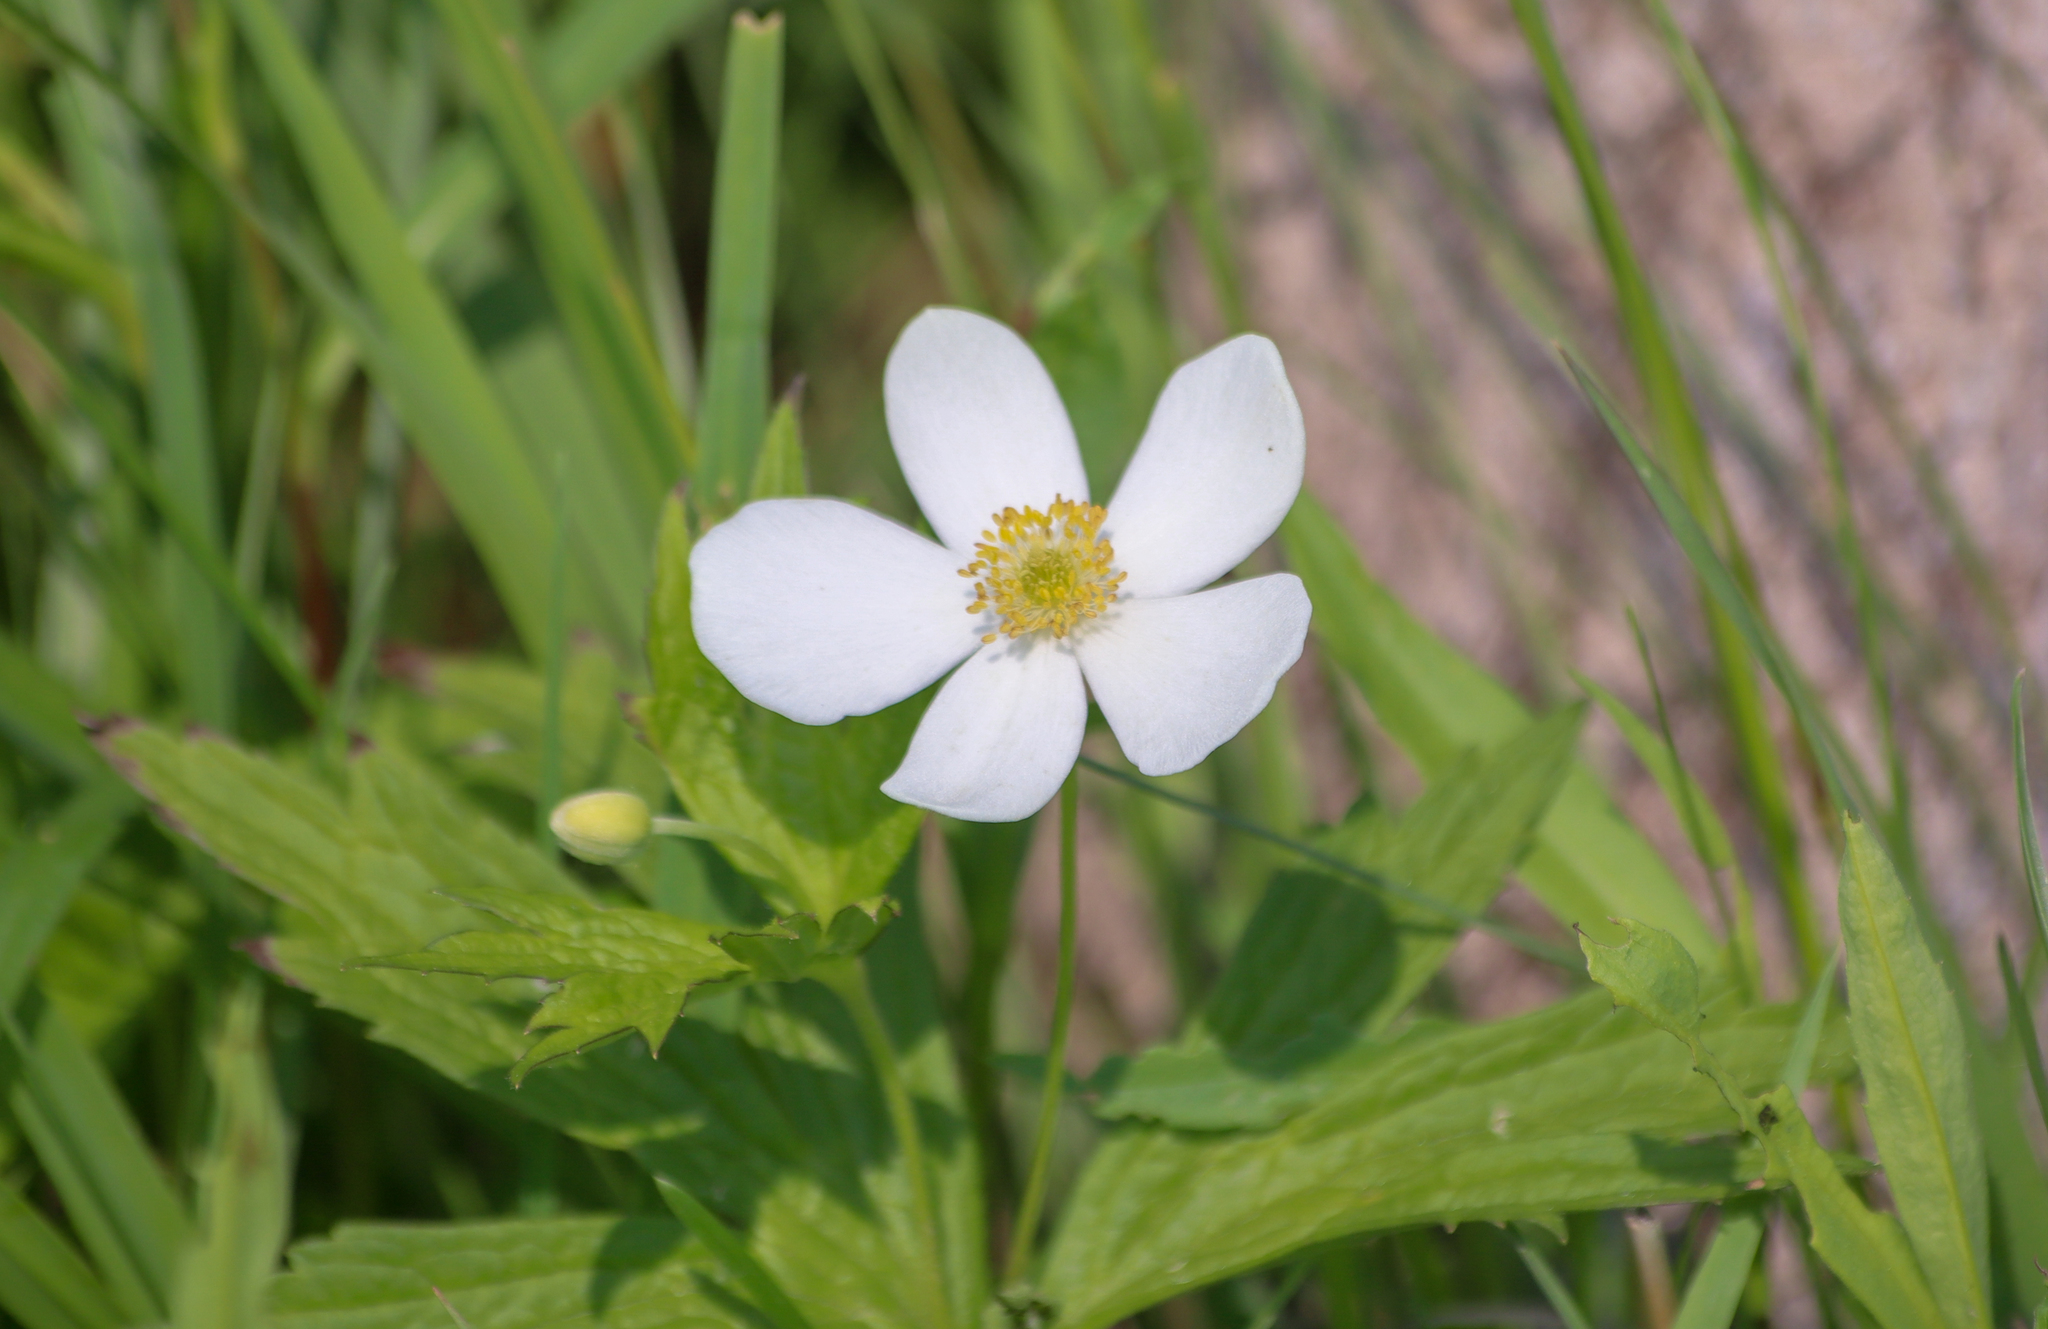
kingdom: Plantae
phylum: Tracheophyta
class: Magnoliopsida
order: Ranunculales
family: Ranunculaceae
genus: Anemonastrum
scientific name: Anemonastrum canadense
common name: Canada anemone
